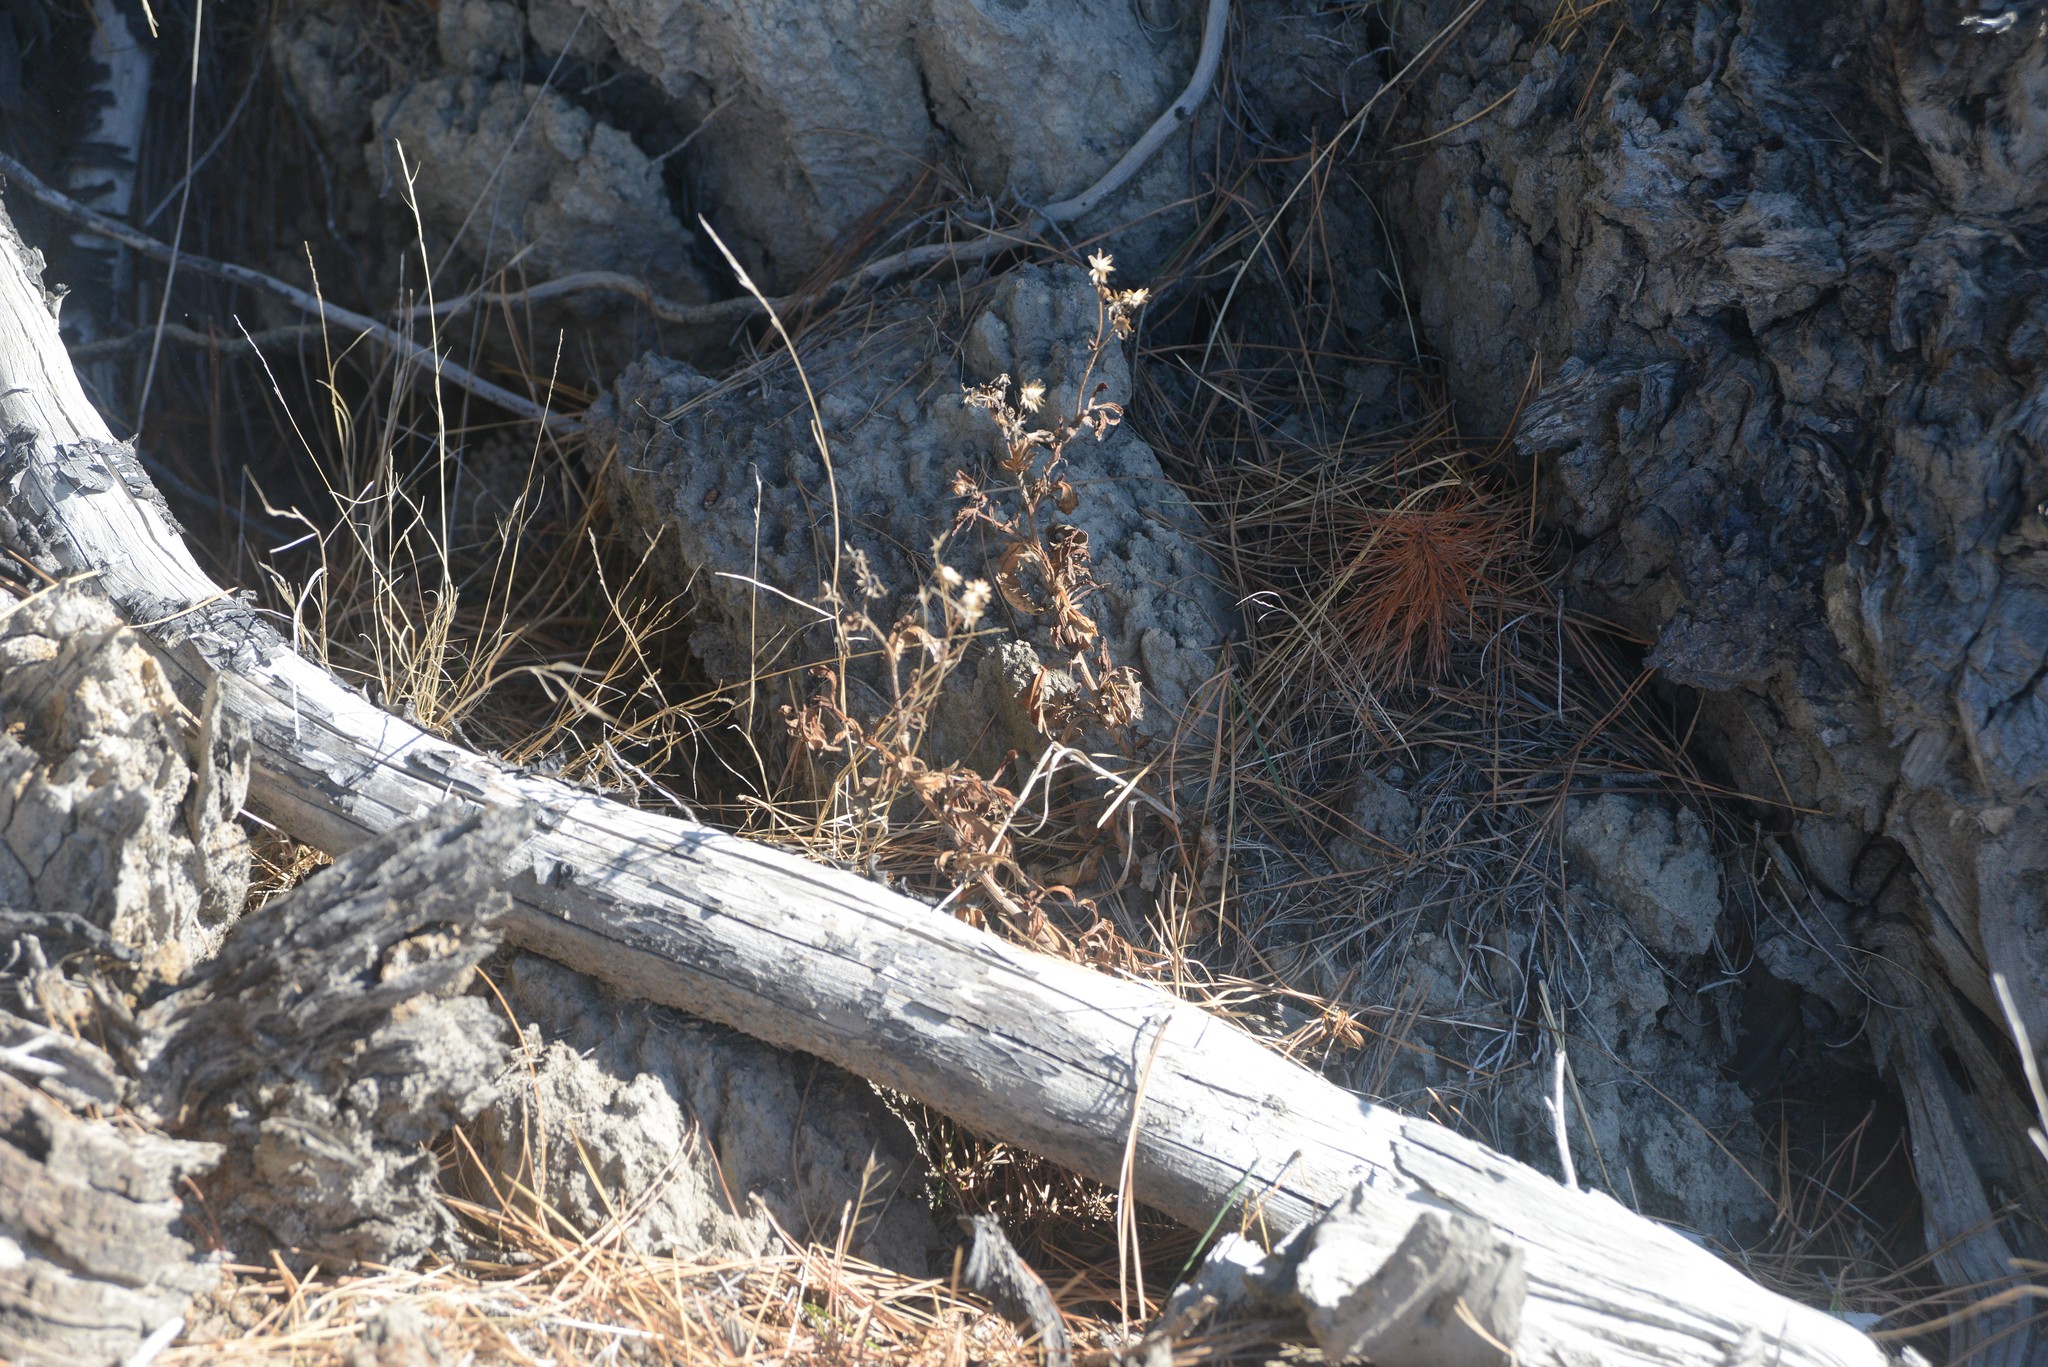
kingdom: Plantae
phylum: Tracheophyta
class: Magnoliopsida
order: Asterales
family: Asteraceae
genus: Senecio
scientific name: Senecio matatini
